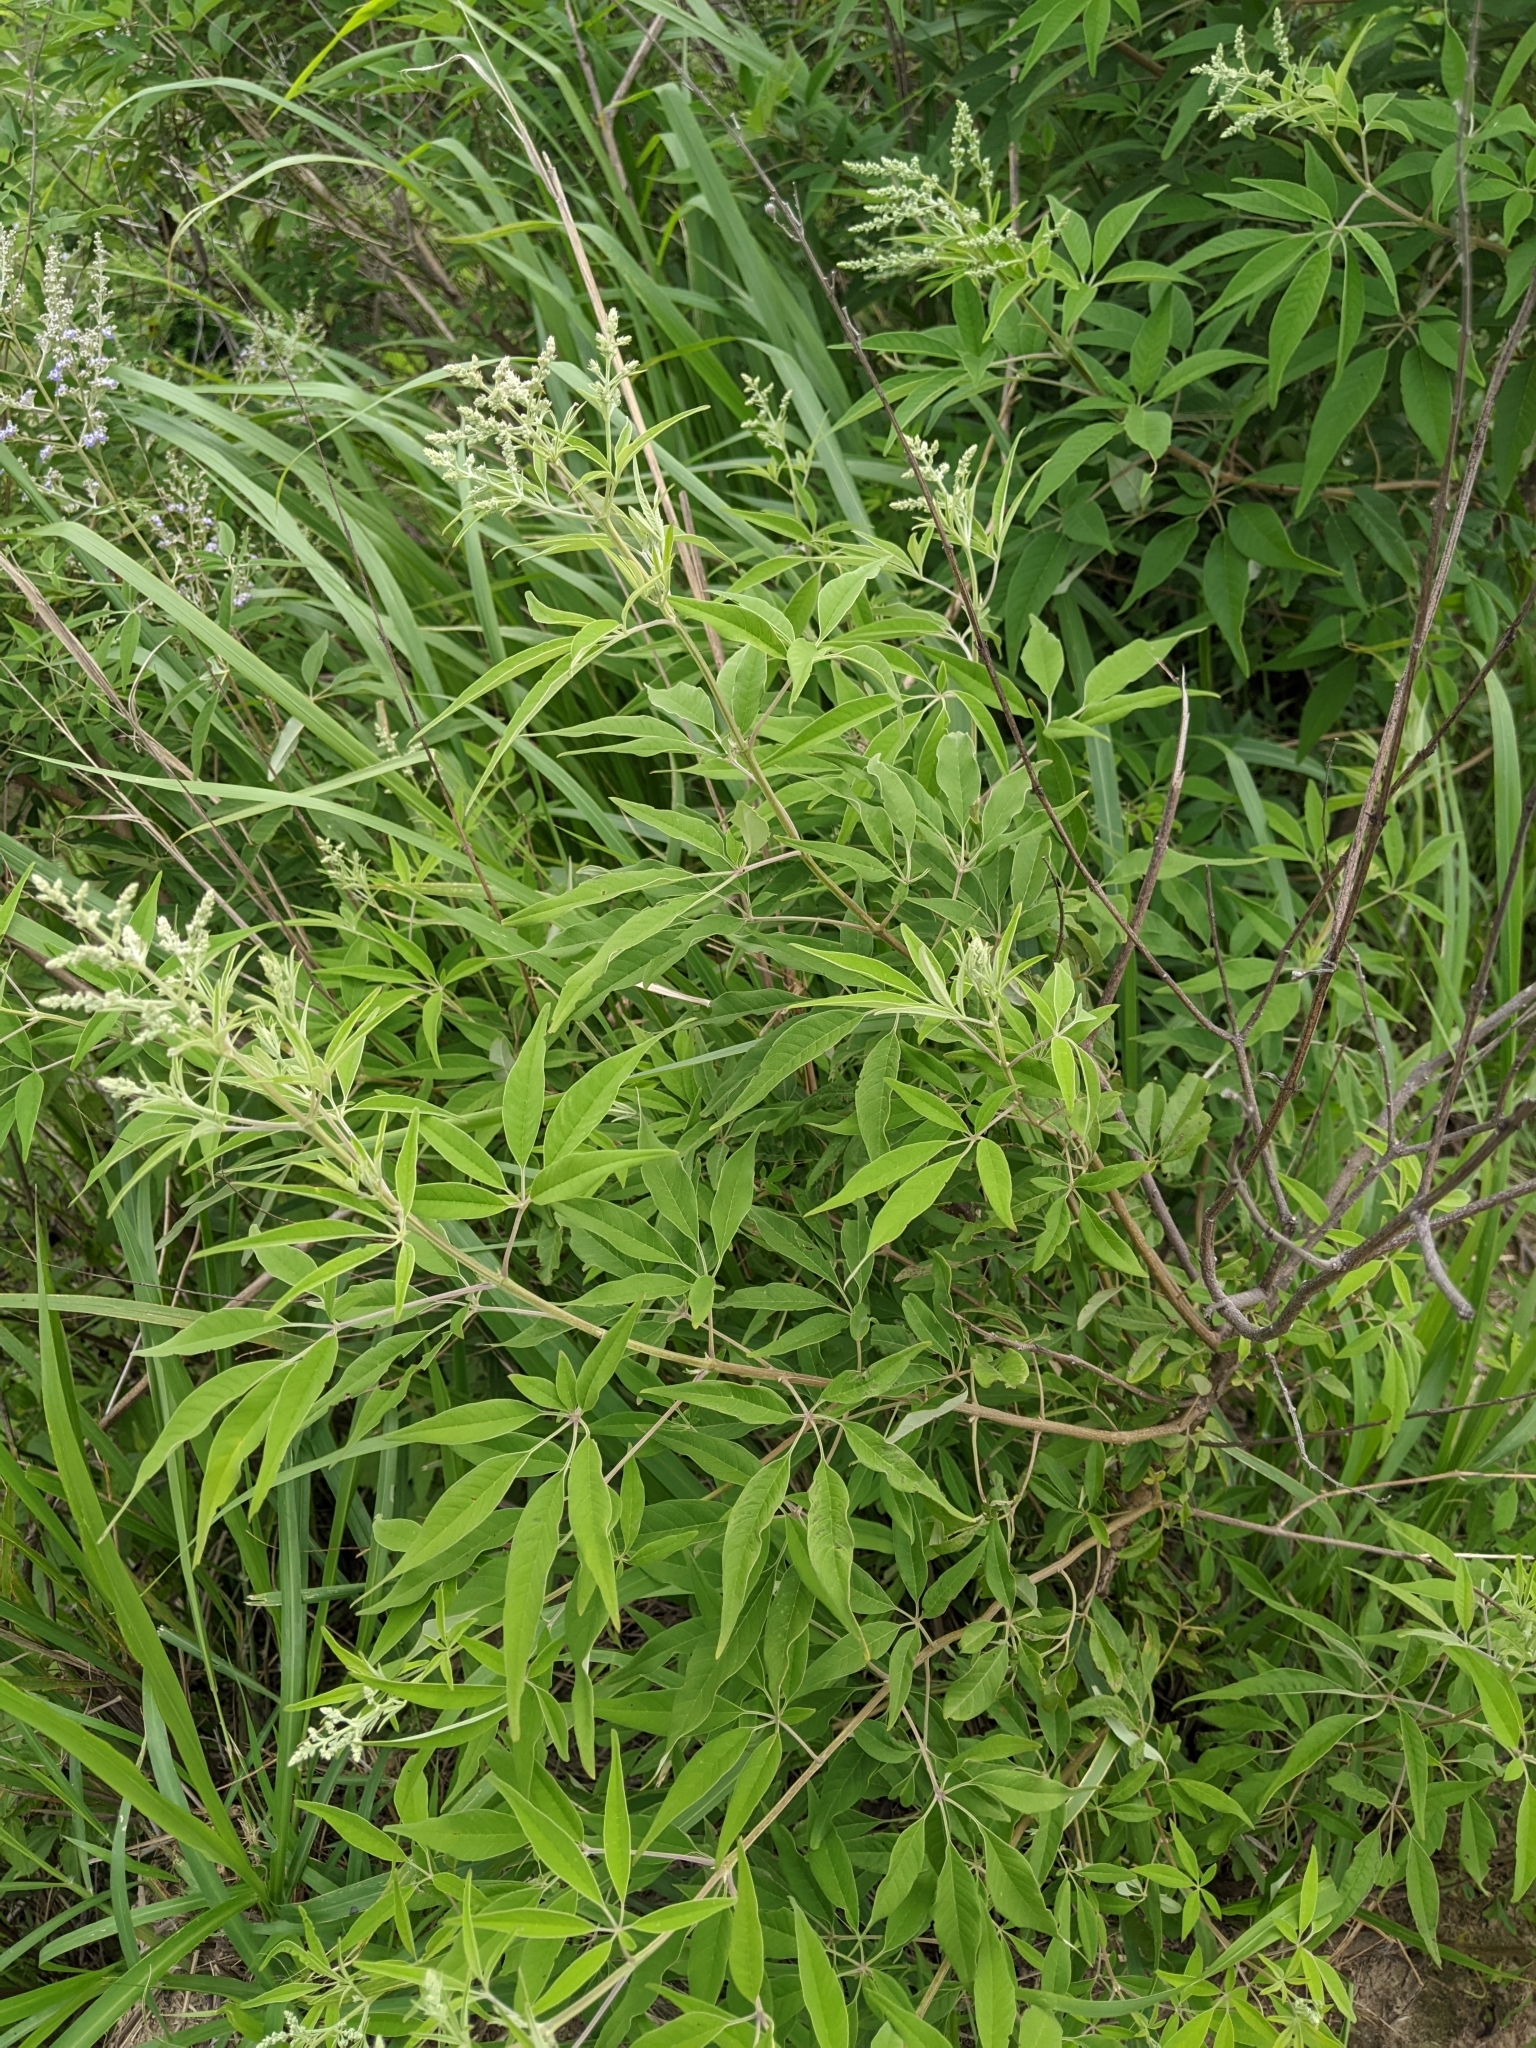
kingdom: Plantae
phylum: Tracheophyta
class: Magnoliopsida
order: Lamiales
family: Lamiaceae
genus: Vitex
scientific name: Vitex negundo
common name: Chinese chastetree
